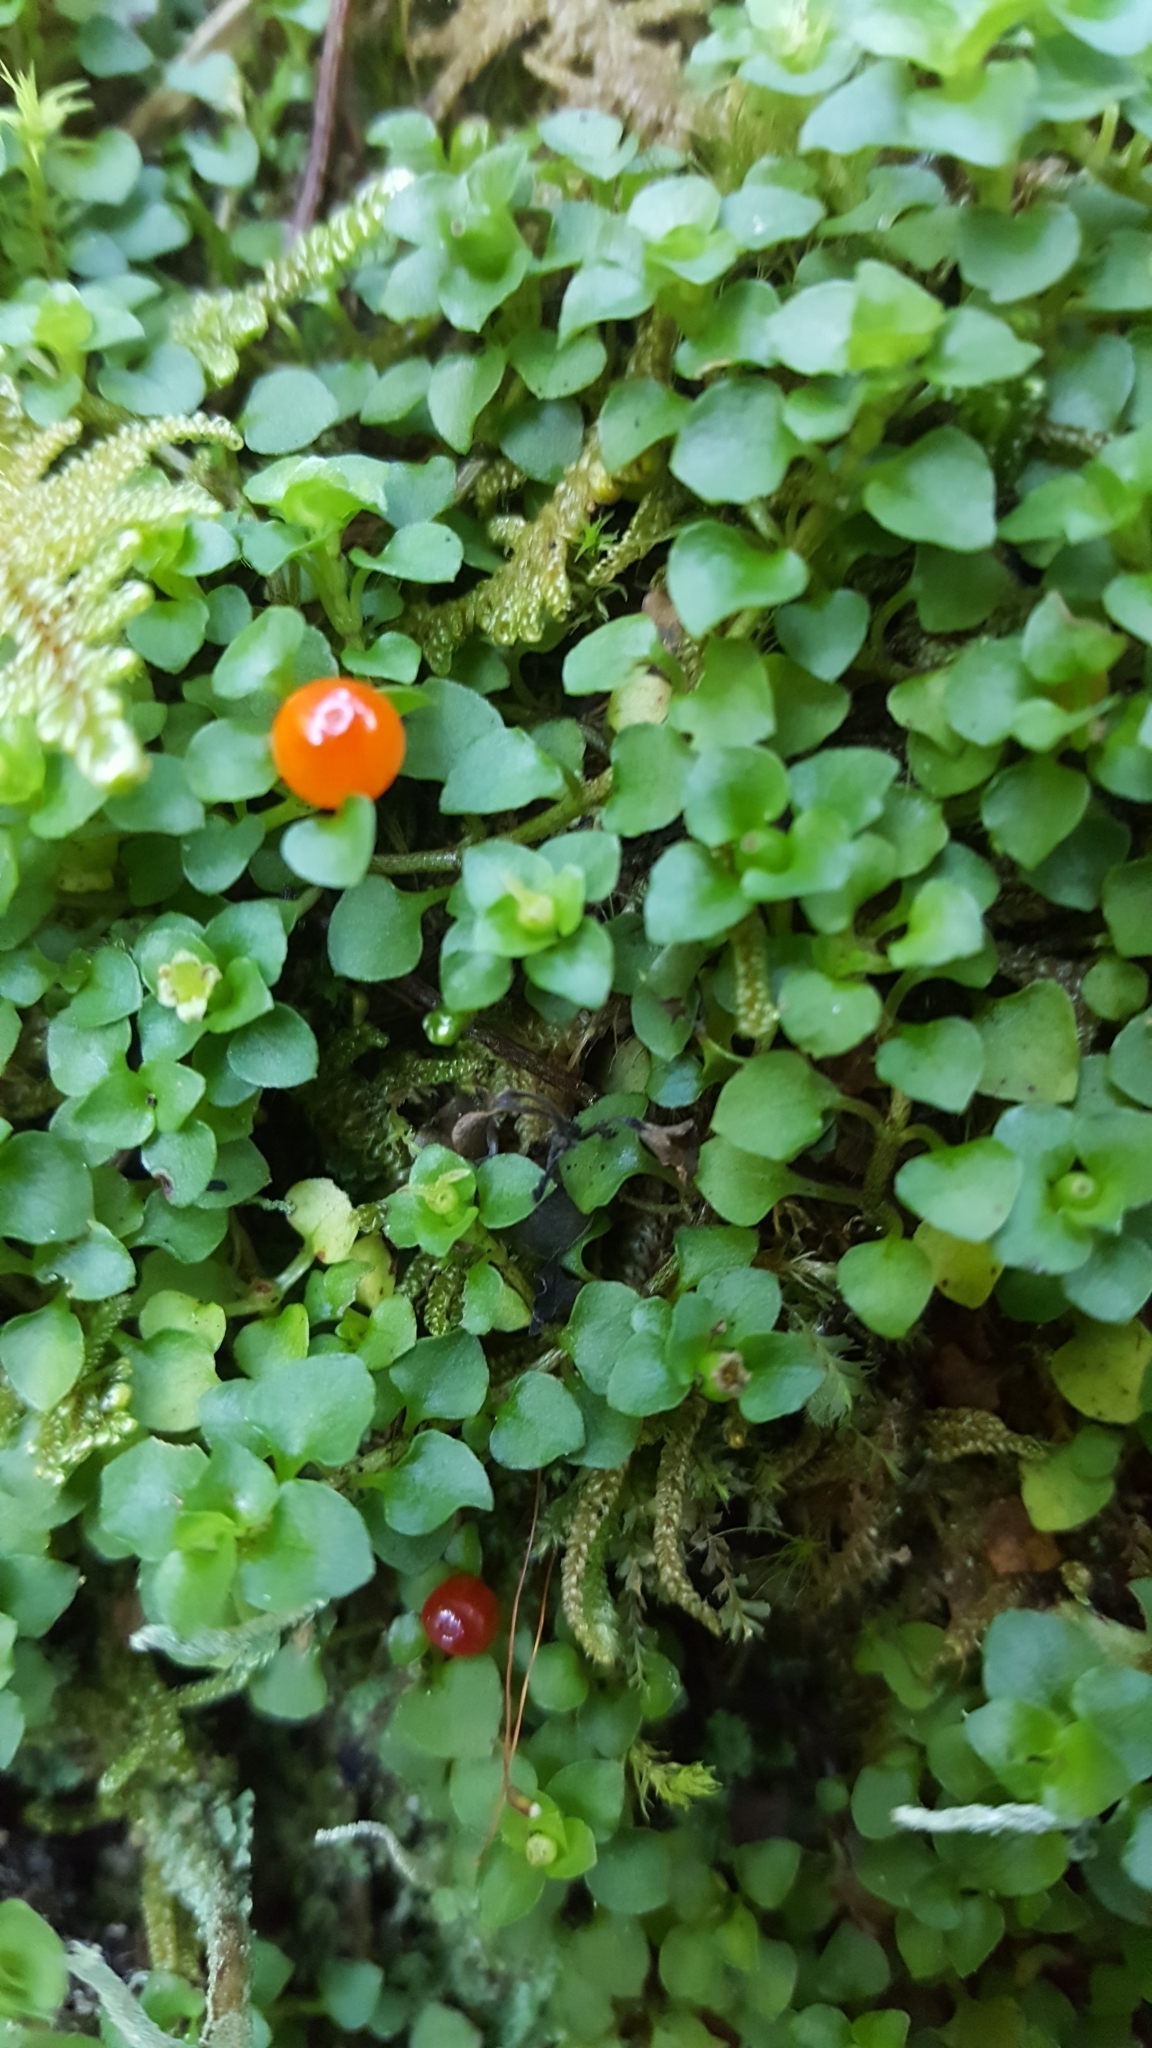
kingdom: Plantae
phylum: Tracheophyta
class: Magnoliopsida
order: Gentianales
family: Rubiaceae
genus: Nertera
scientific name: Nertera granadensis
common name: Beadplant
